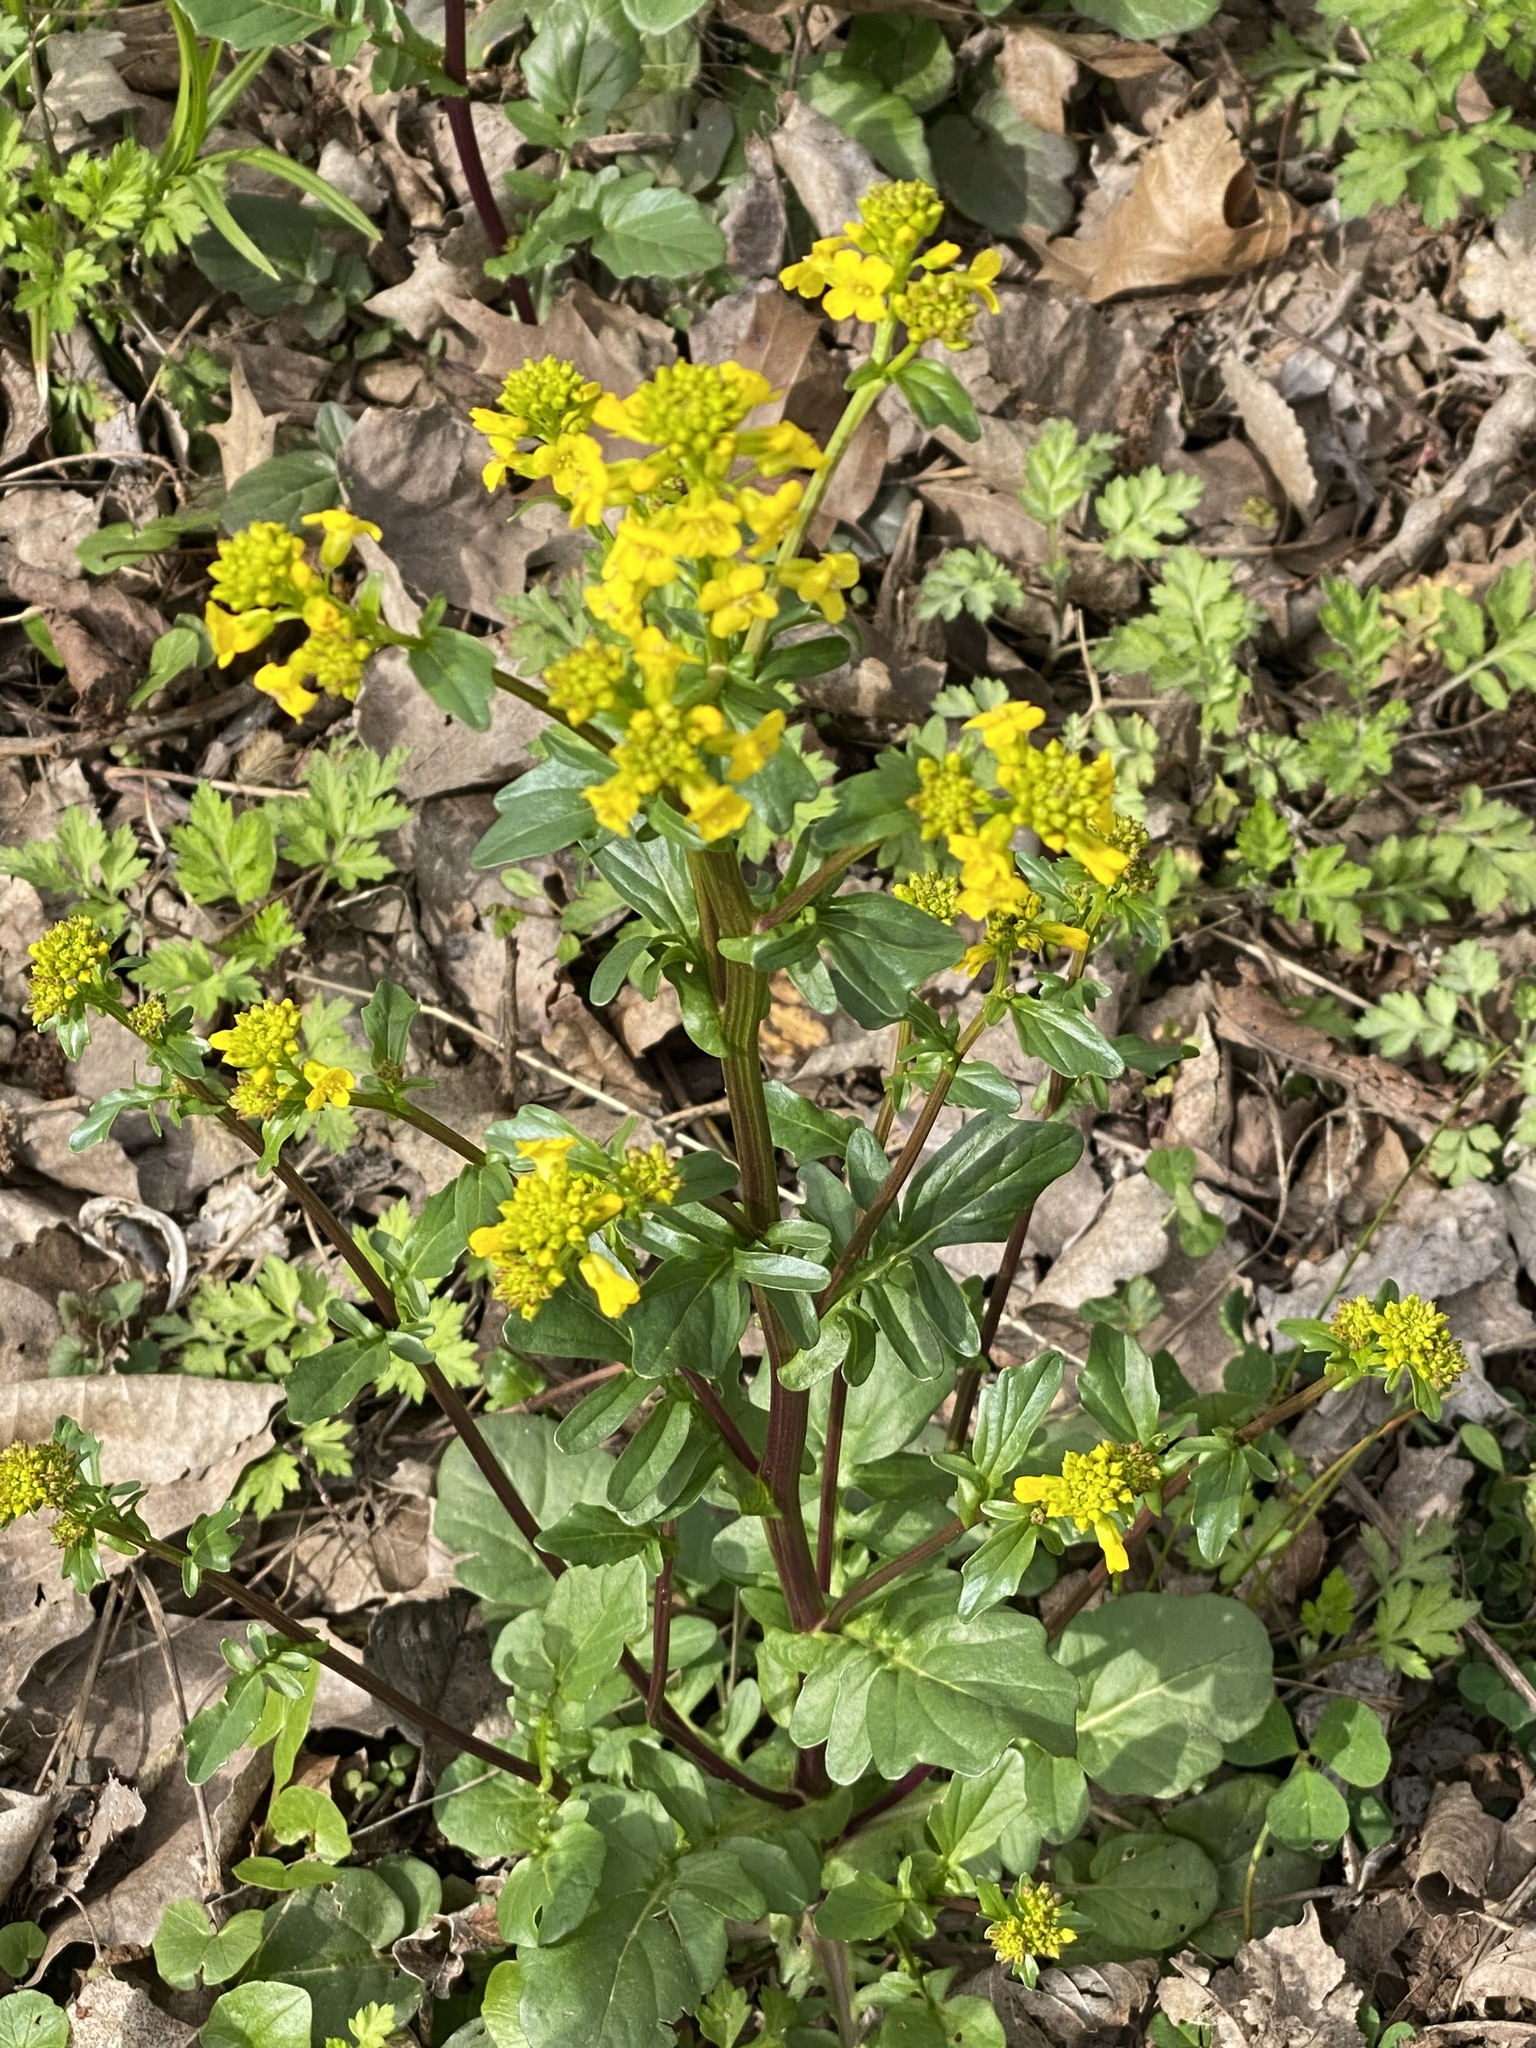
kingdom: Plantae
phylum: Tracheophyta
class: Magnoliopsida
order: Brassicales
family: Brassicaceae
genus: Barbarea
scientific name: Barbarea vulgaris
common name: Cressy-greens
